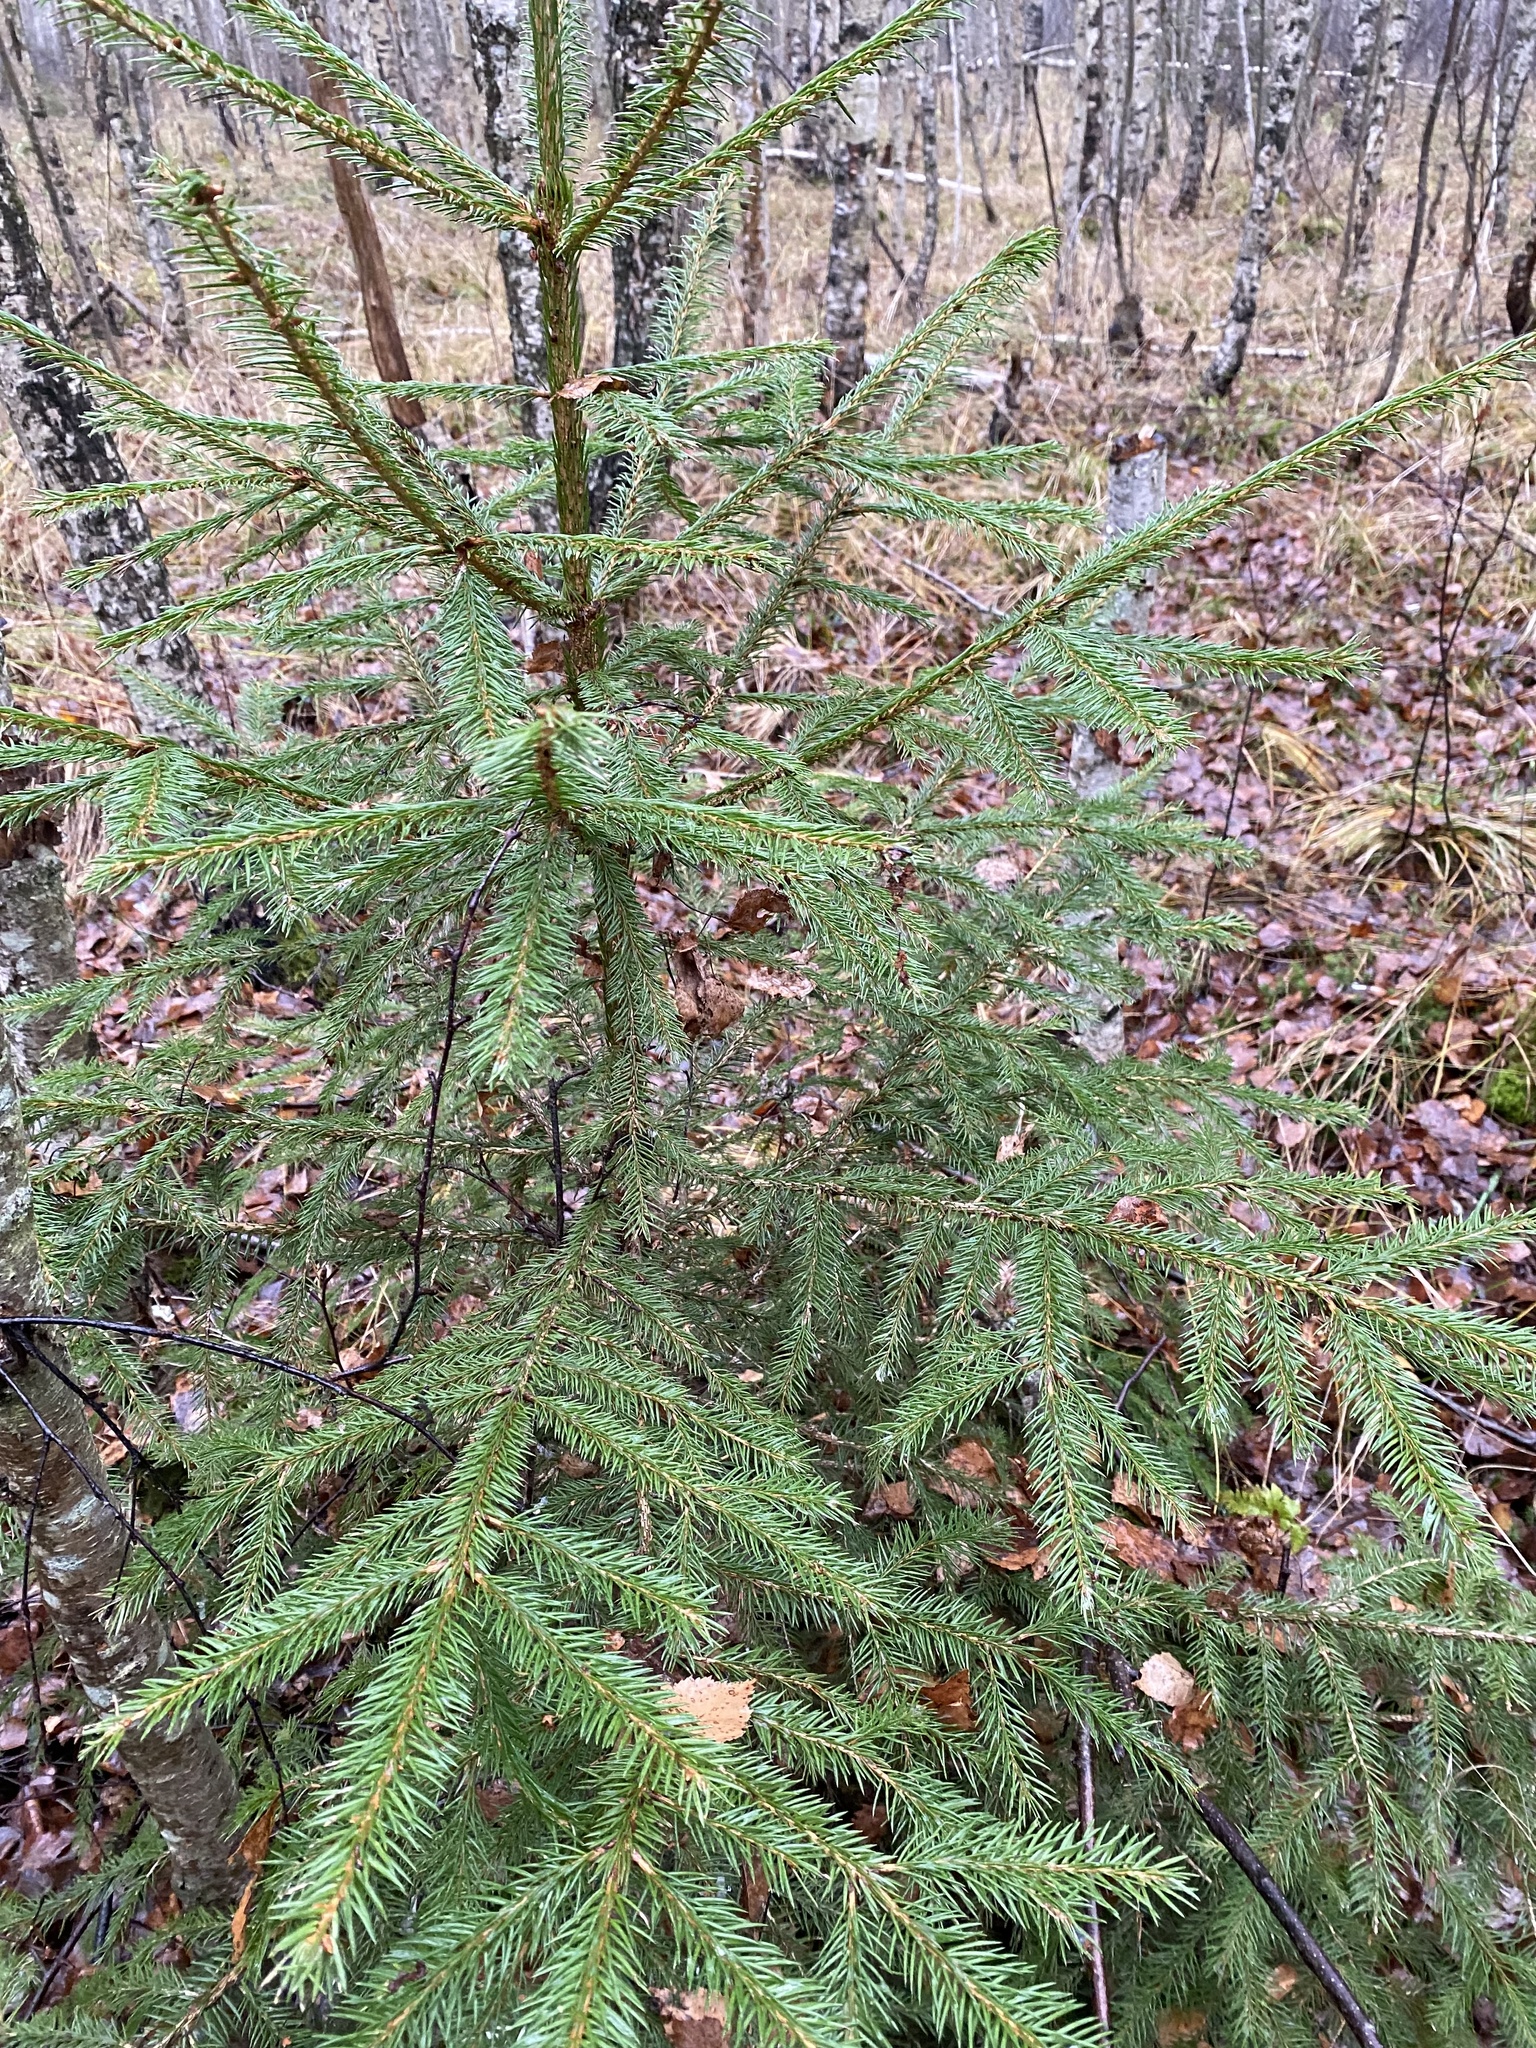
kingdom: Plantae
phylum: Tracheophyta
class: Pinopsida
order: Pinales
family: Pinaceae
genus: Picea
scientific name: Picea abies
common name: Norway spruce
